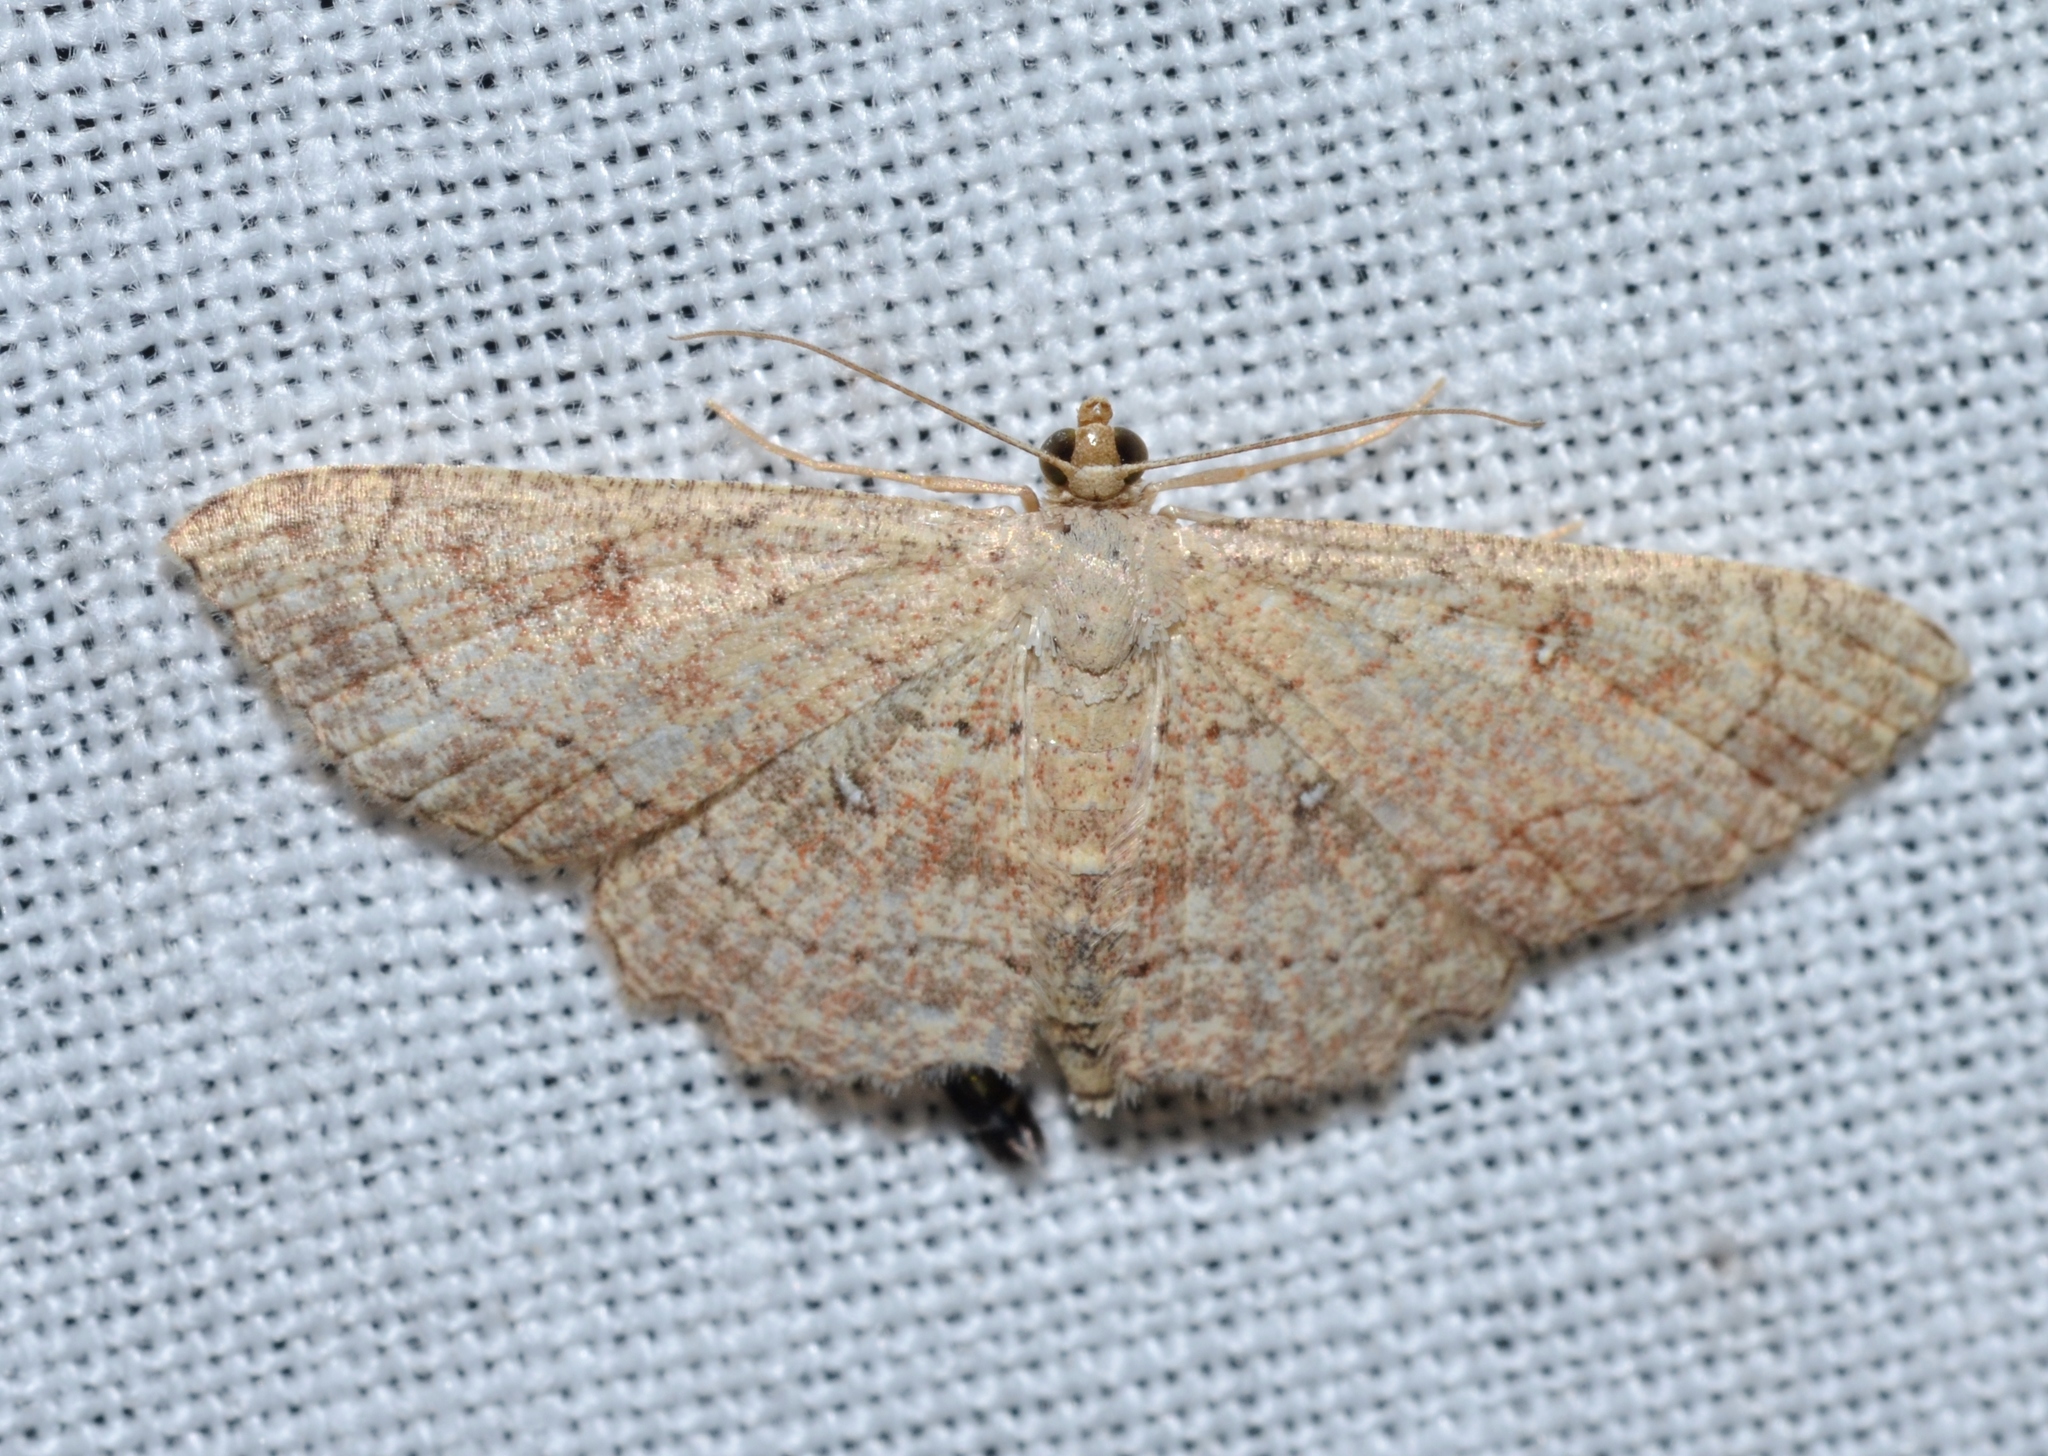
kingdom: Animalia
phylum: Arthropoda
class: Insecta
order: Lepidoptera
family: Geometridae
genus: Cyclophora
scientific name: Cyclophora nanaria
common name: Cankerworm
